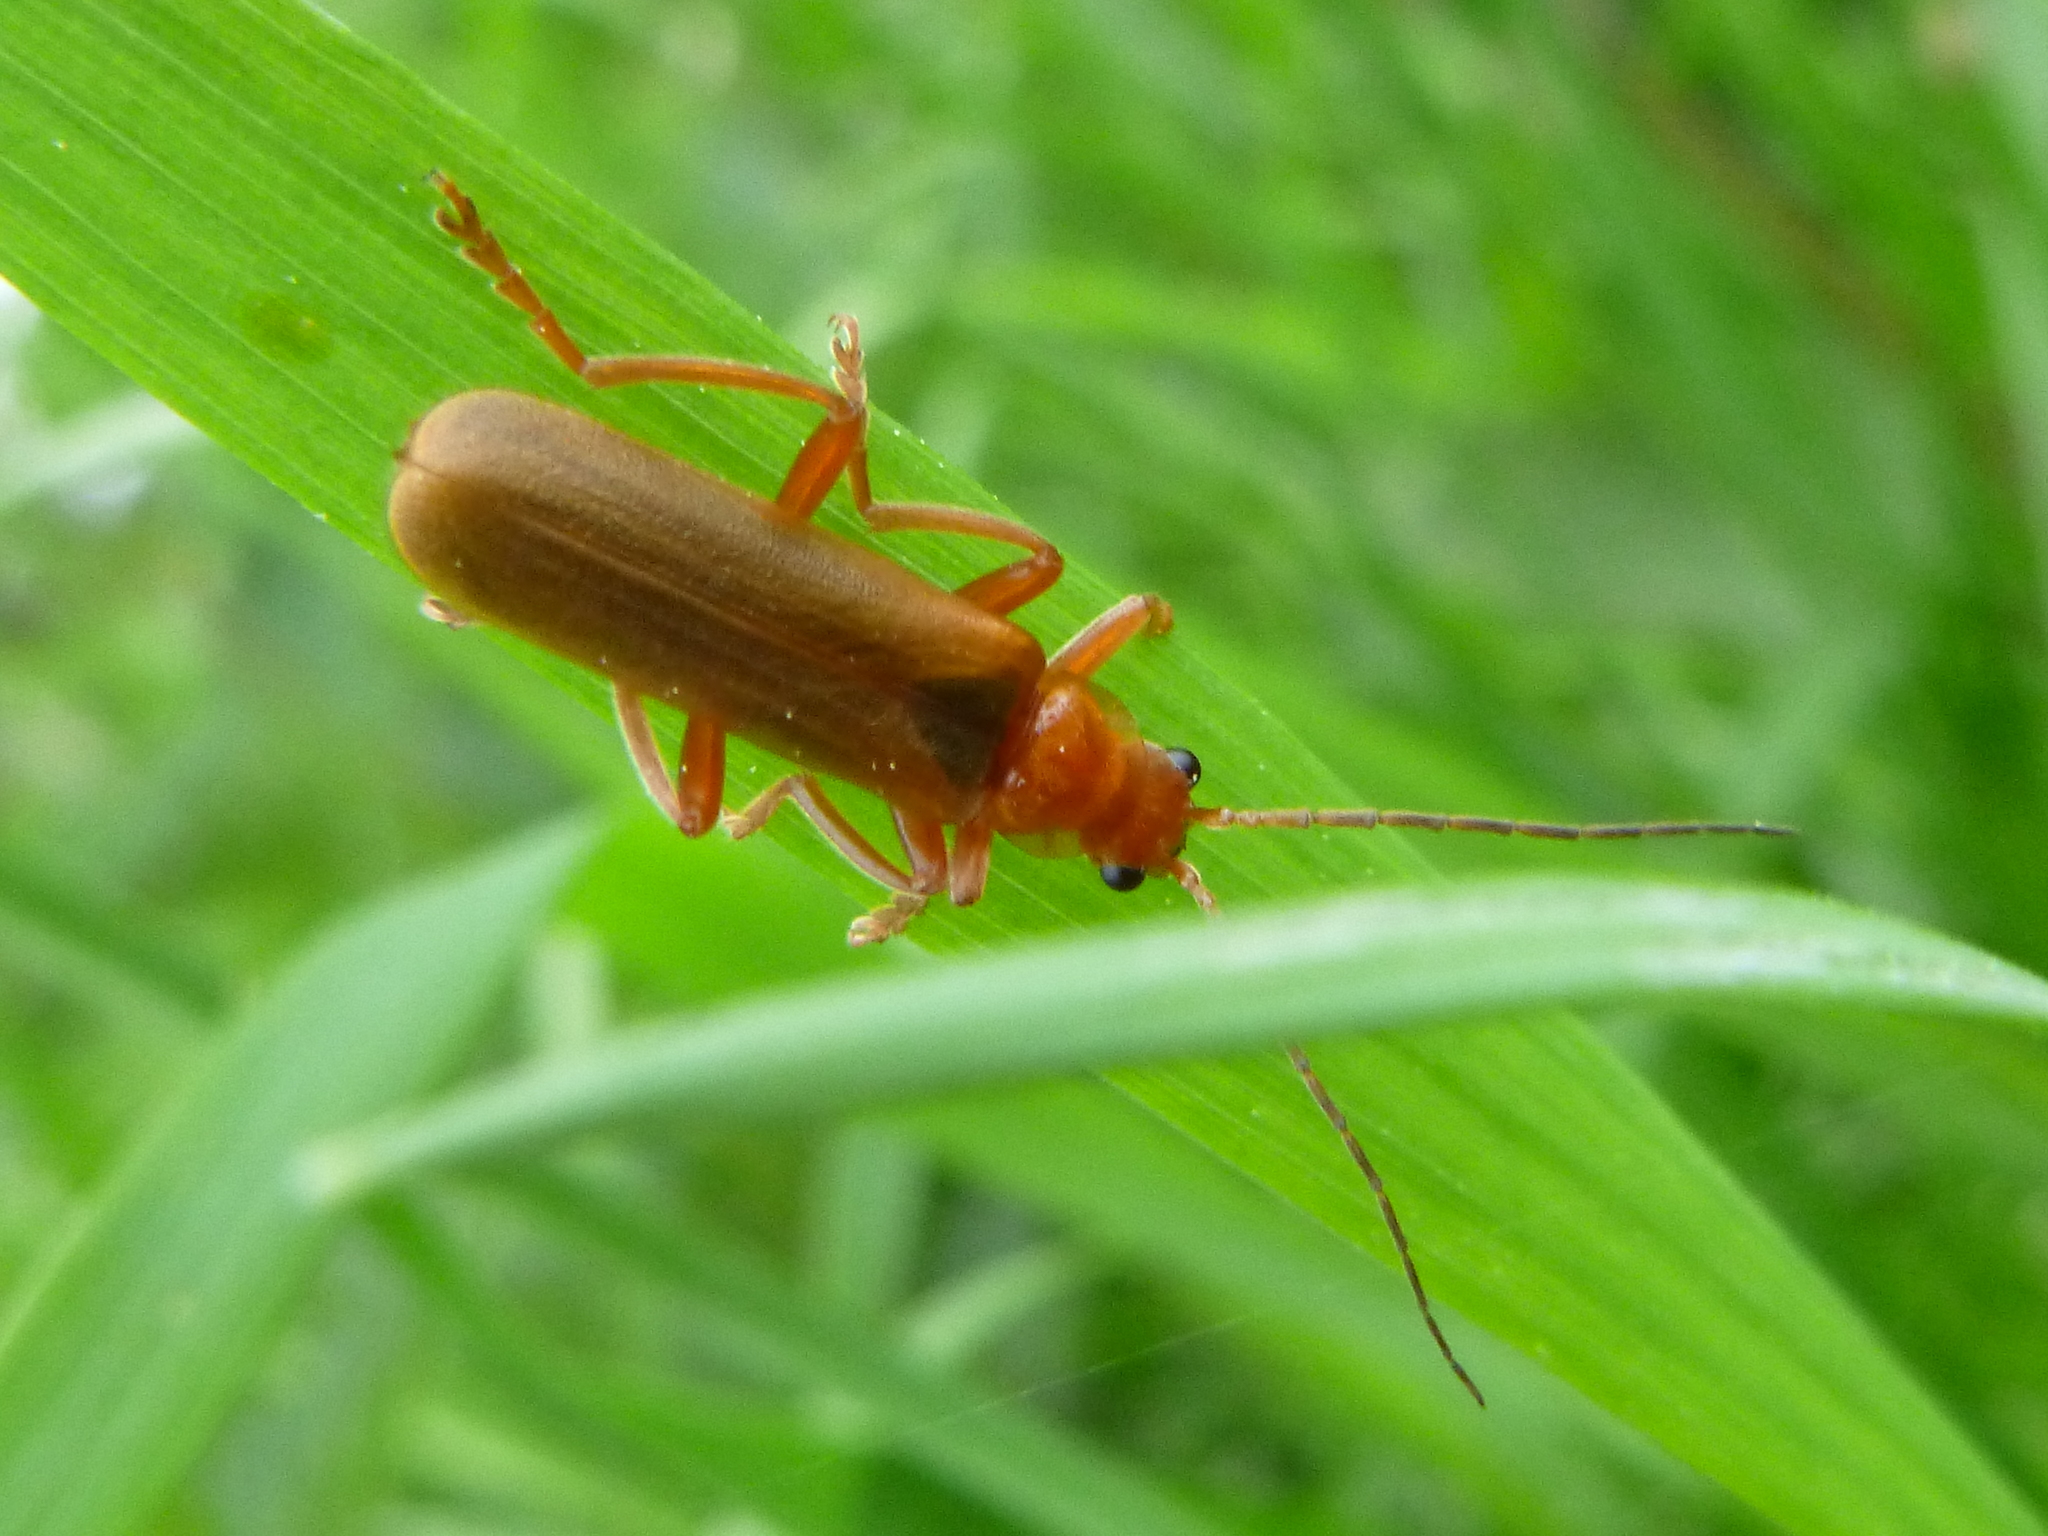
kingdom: Animalia
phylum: Arthropoda
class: Insecta
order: Coleoptera
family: Cantharidae
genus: Cantharis
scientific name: Cantharis rufa
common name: Red-spotted soldier beetle
